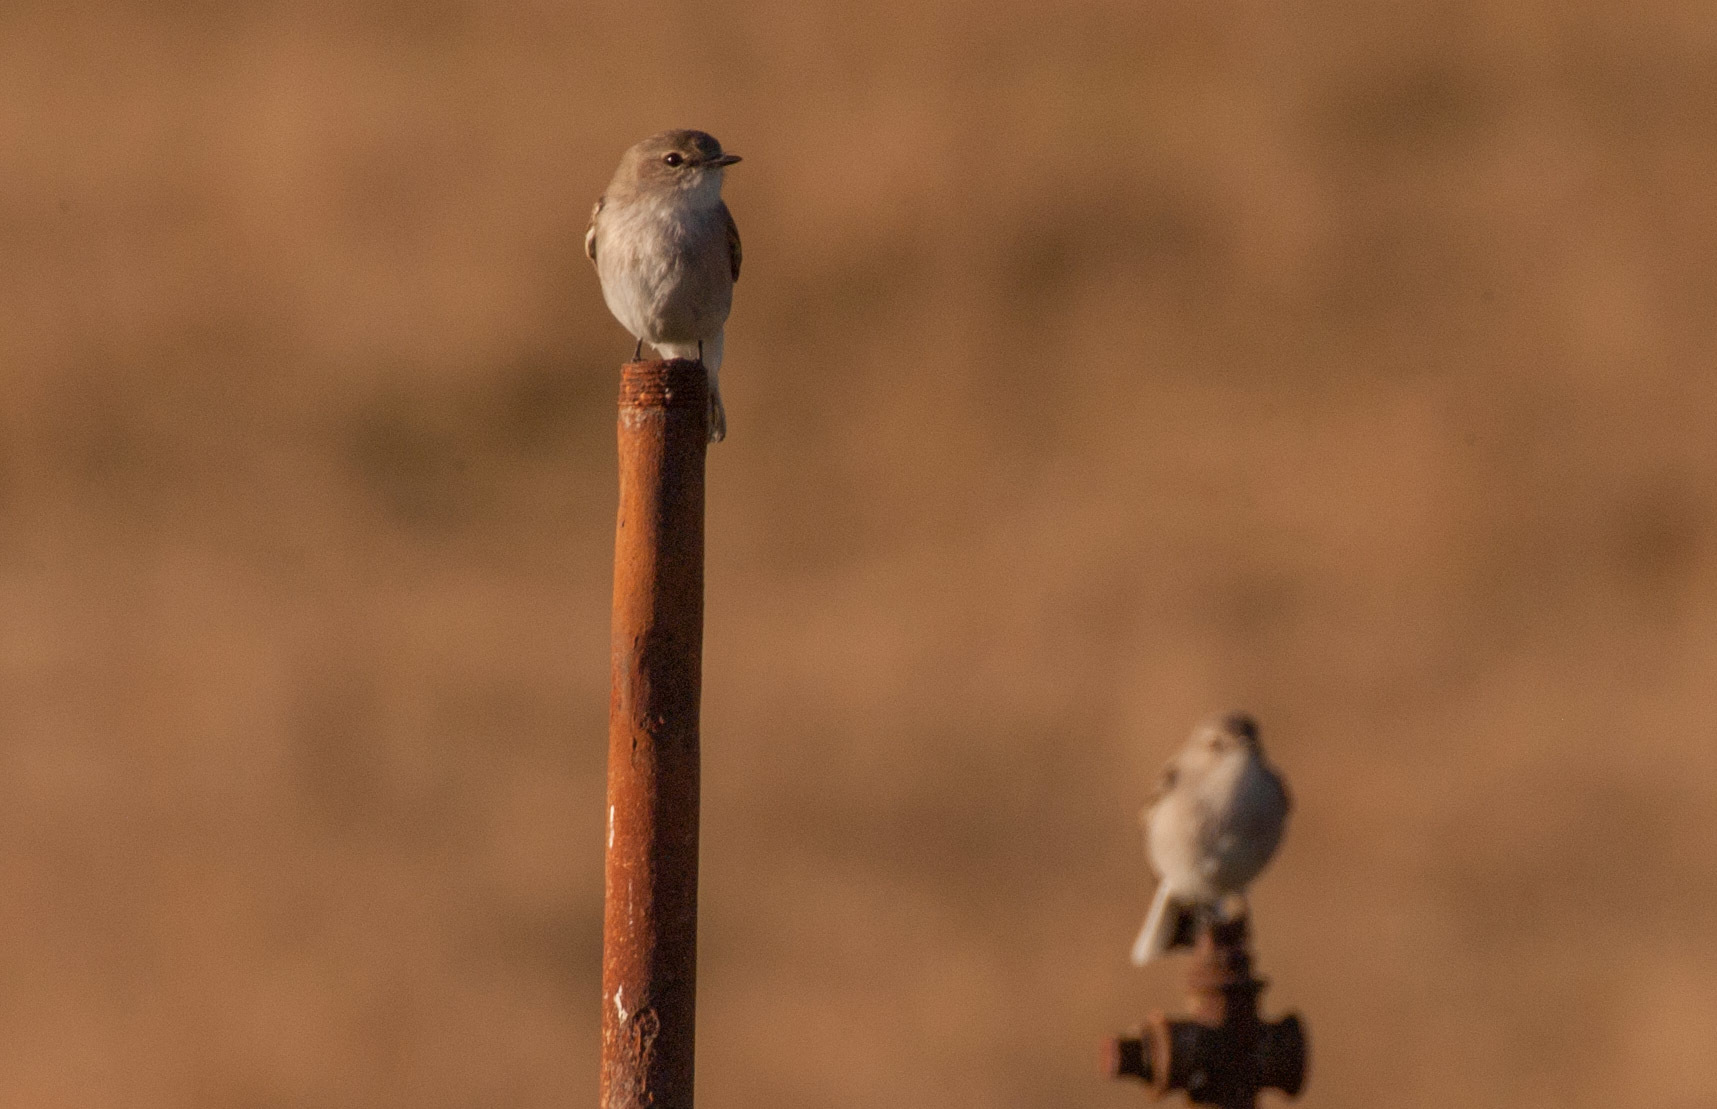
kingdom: Animalia
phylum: Chordata
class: Aves
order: Passeriformes
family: Petroicidae
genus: Microeca
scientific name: Microeca fascinans
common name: Jacky winter
